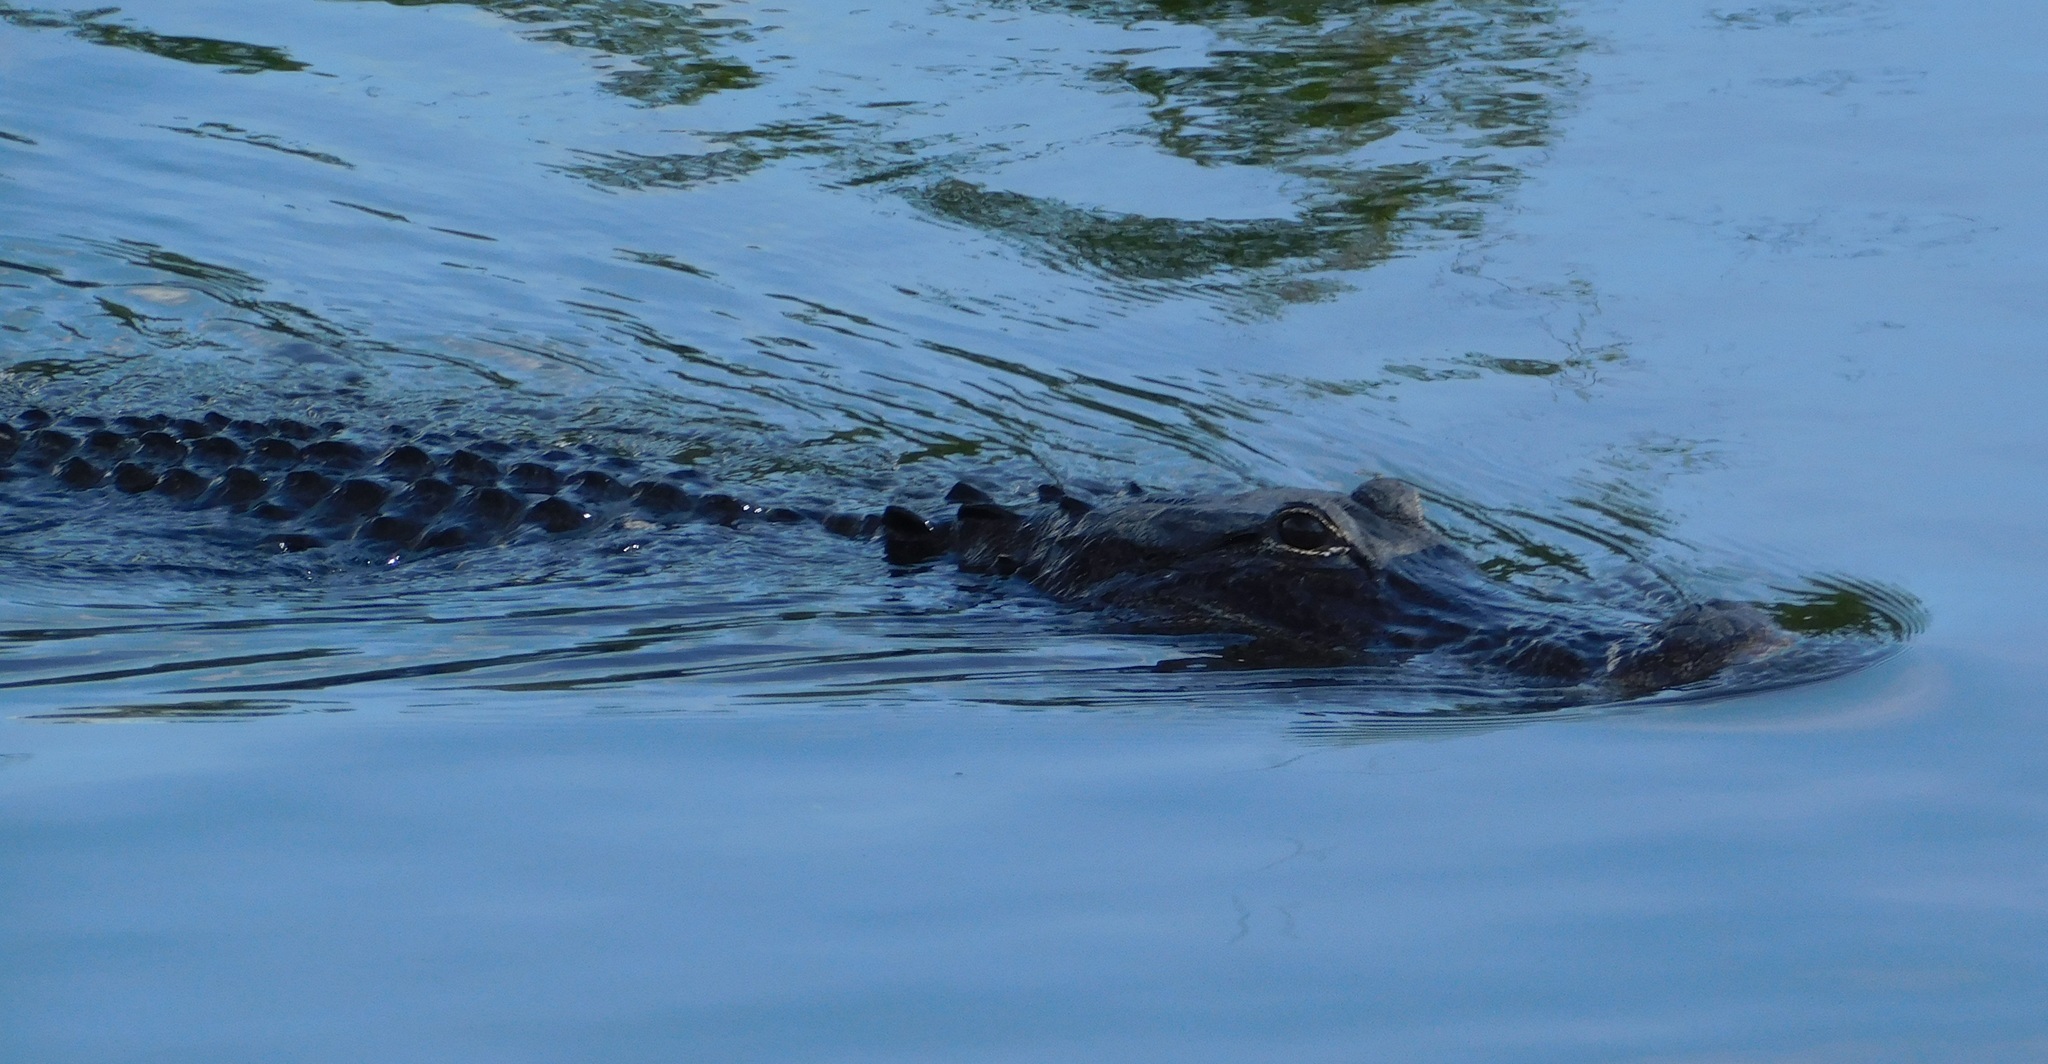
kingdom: Animalia
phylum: Chordata
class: Crocodylia
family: Alligatoridae
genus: Alligator
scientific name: Alligator mississippiensis
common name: American alligator
